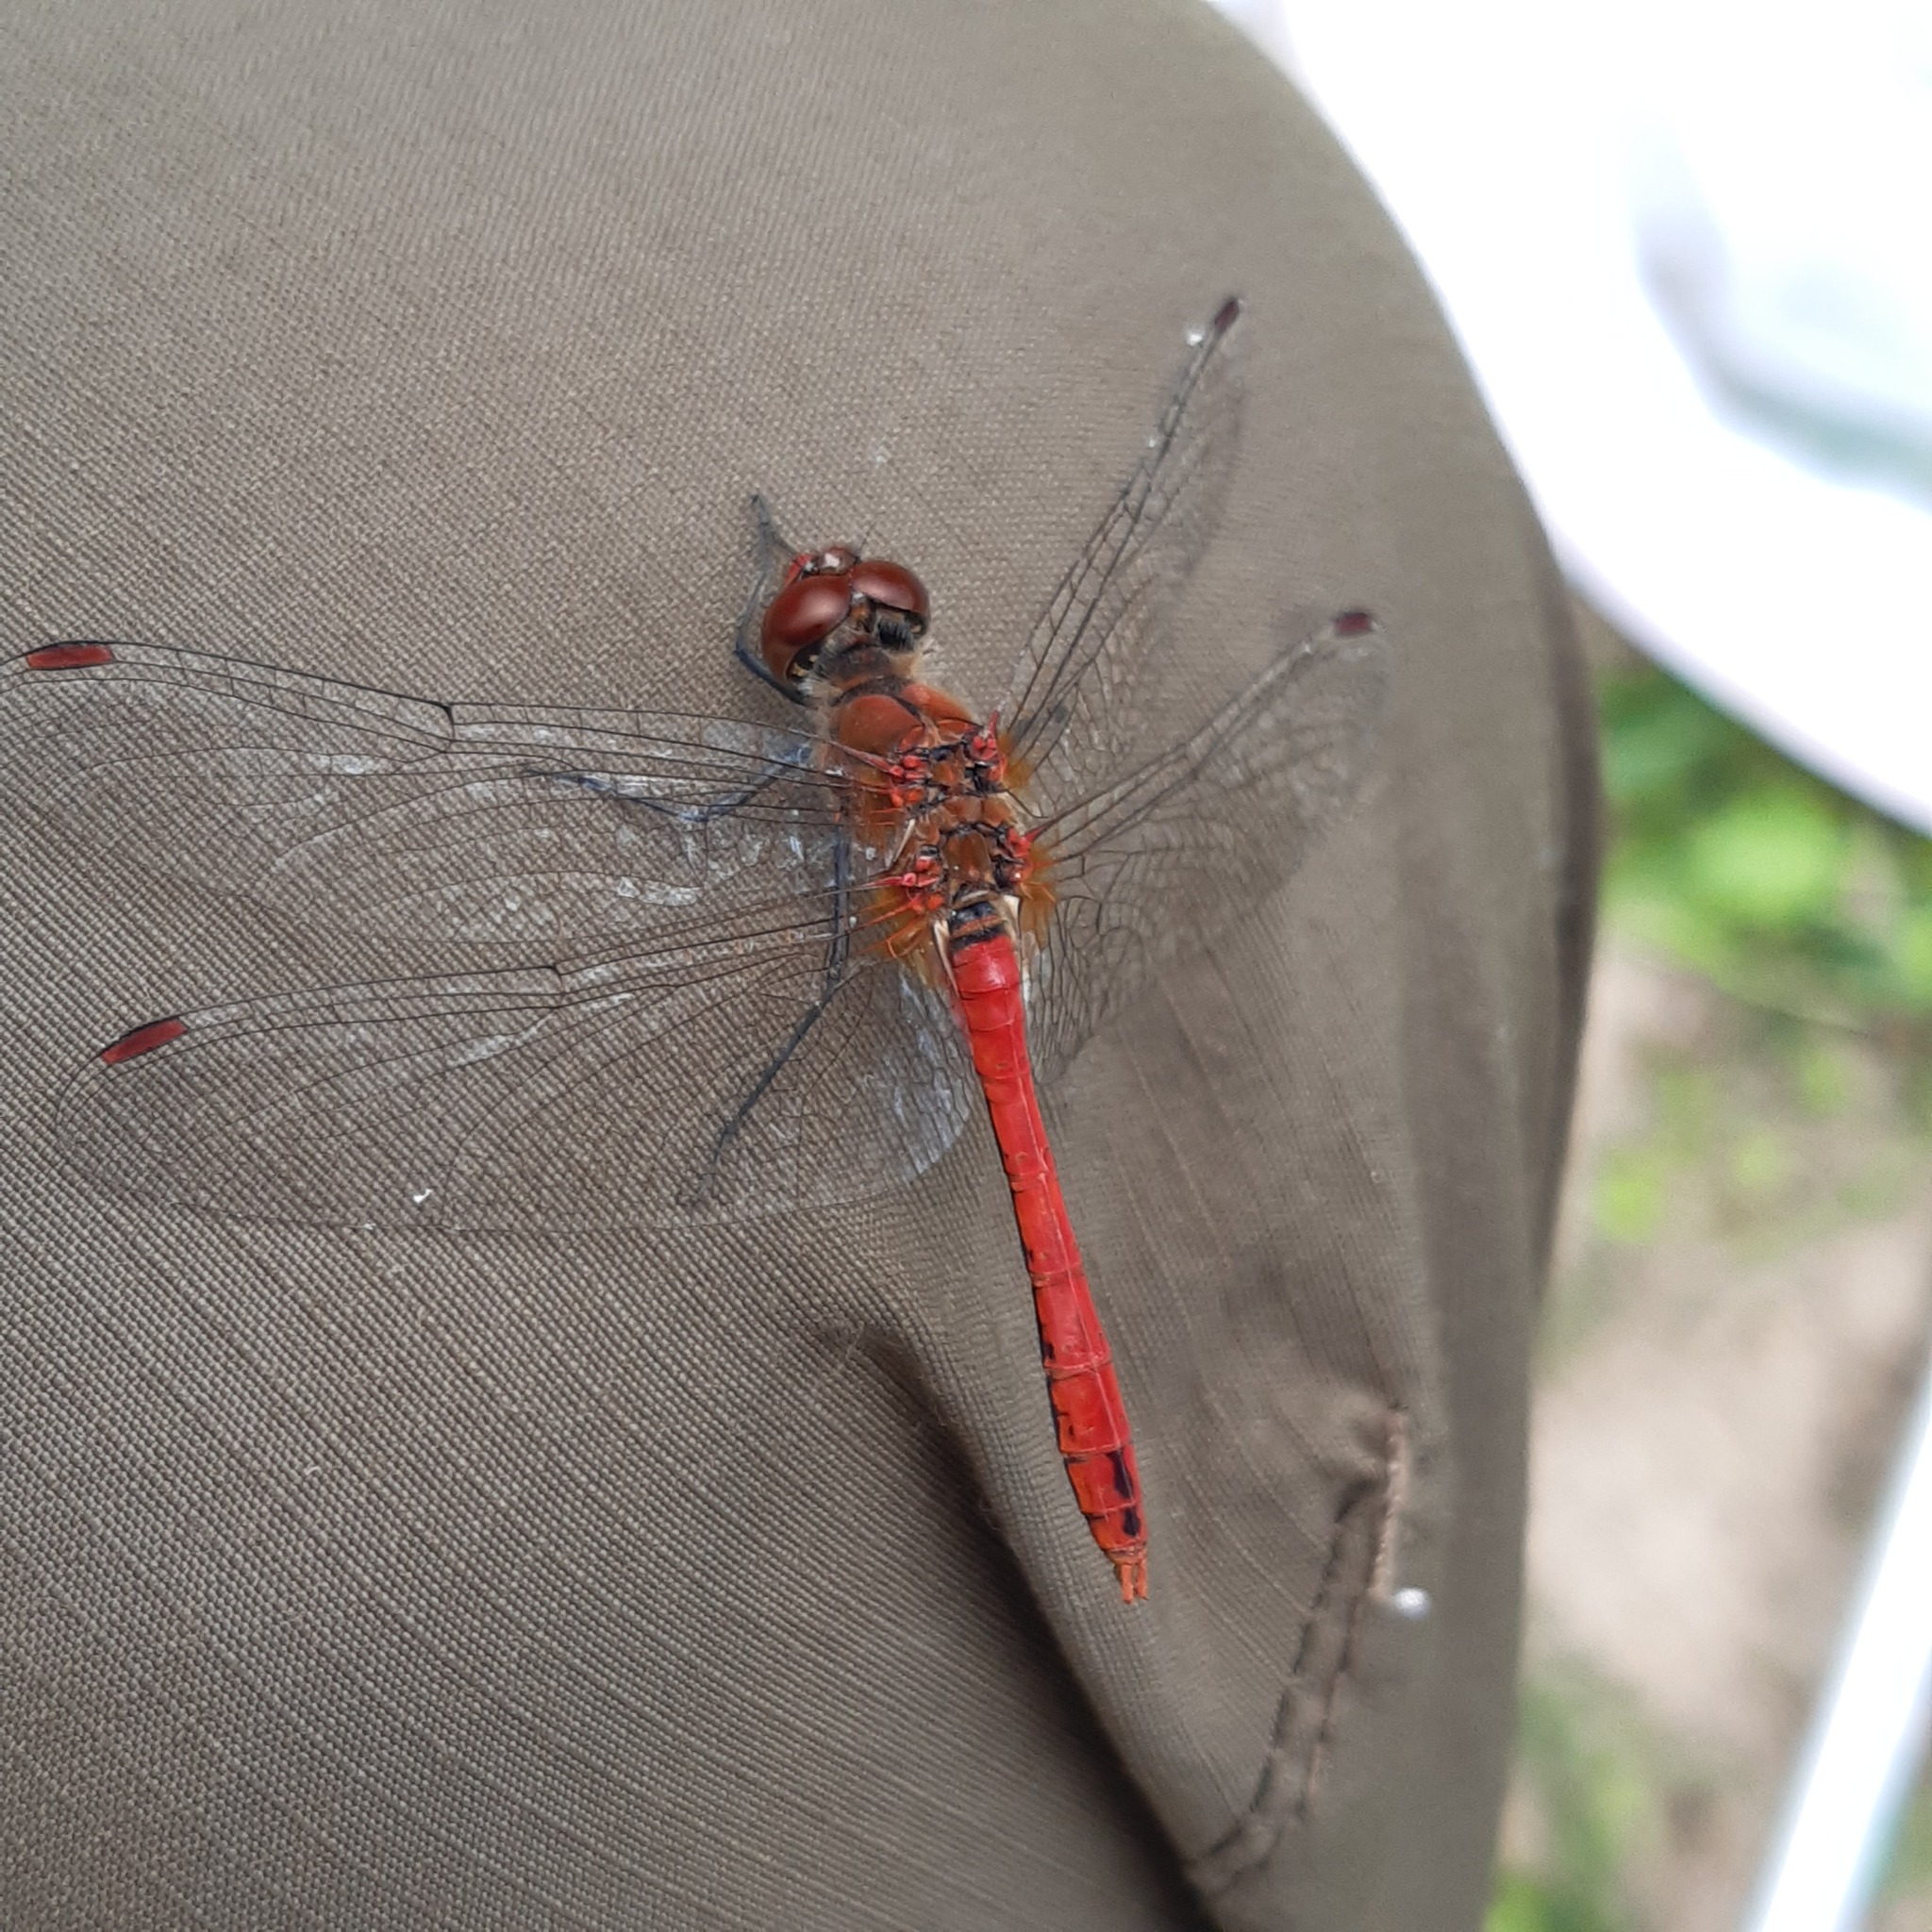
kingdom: Animalia
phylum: Arthropoda
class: Insecta
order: Odonata
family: Libellulidae
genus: Sympetrum
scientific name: Sympetrum sanguineum
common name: Ruddy darter
